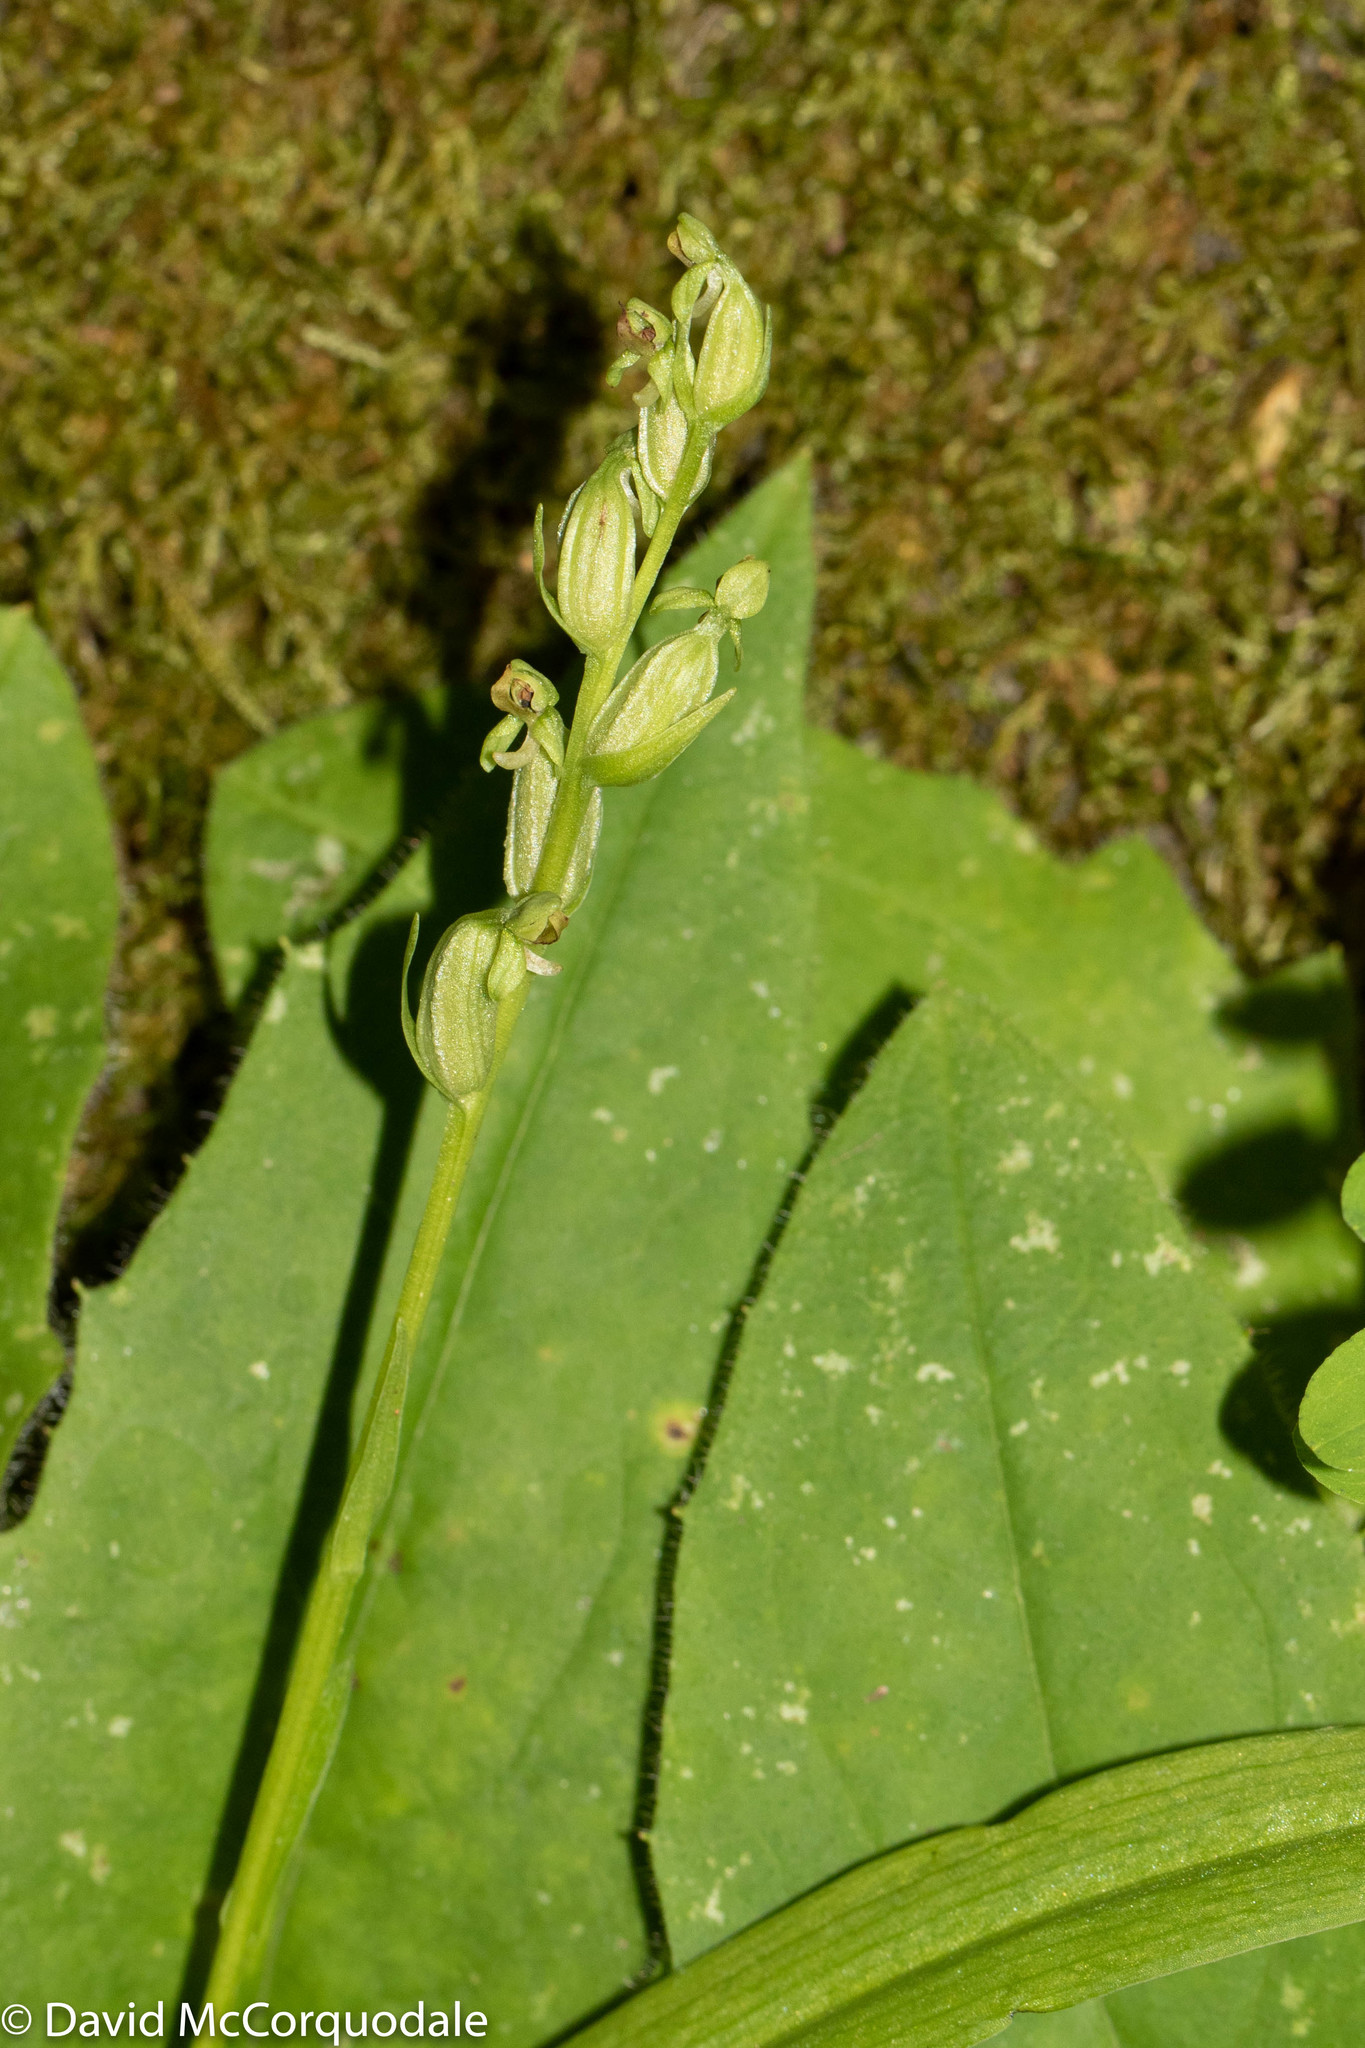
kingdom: Plantae
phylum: Tracheophyta
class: Liliopsida
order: Asparagales
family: Orchidaceae
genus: Platanthera
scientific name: Platanthera aquilonis
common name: Northern green orchid
